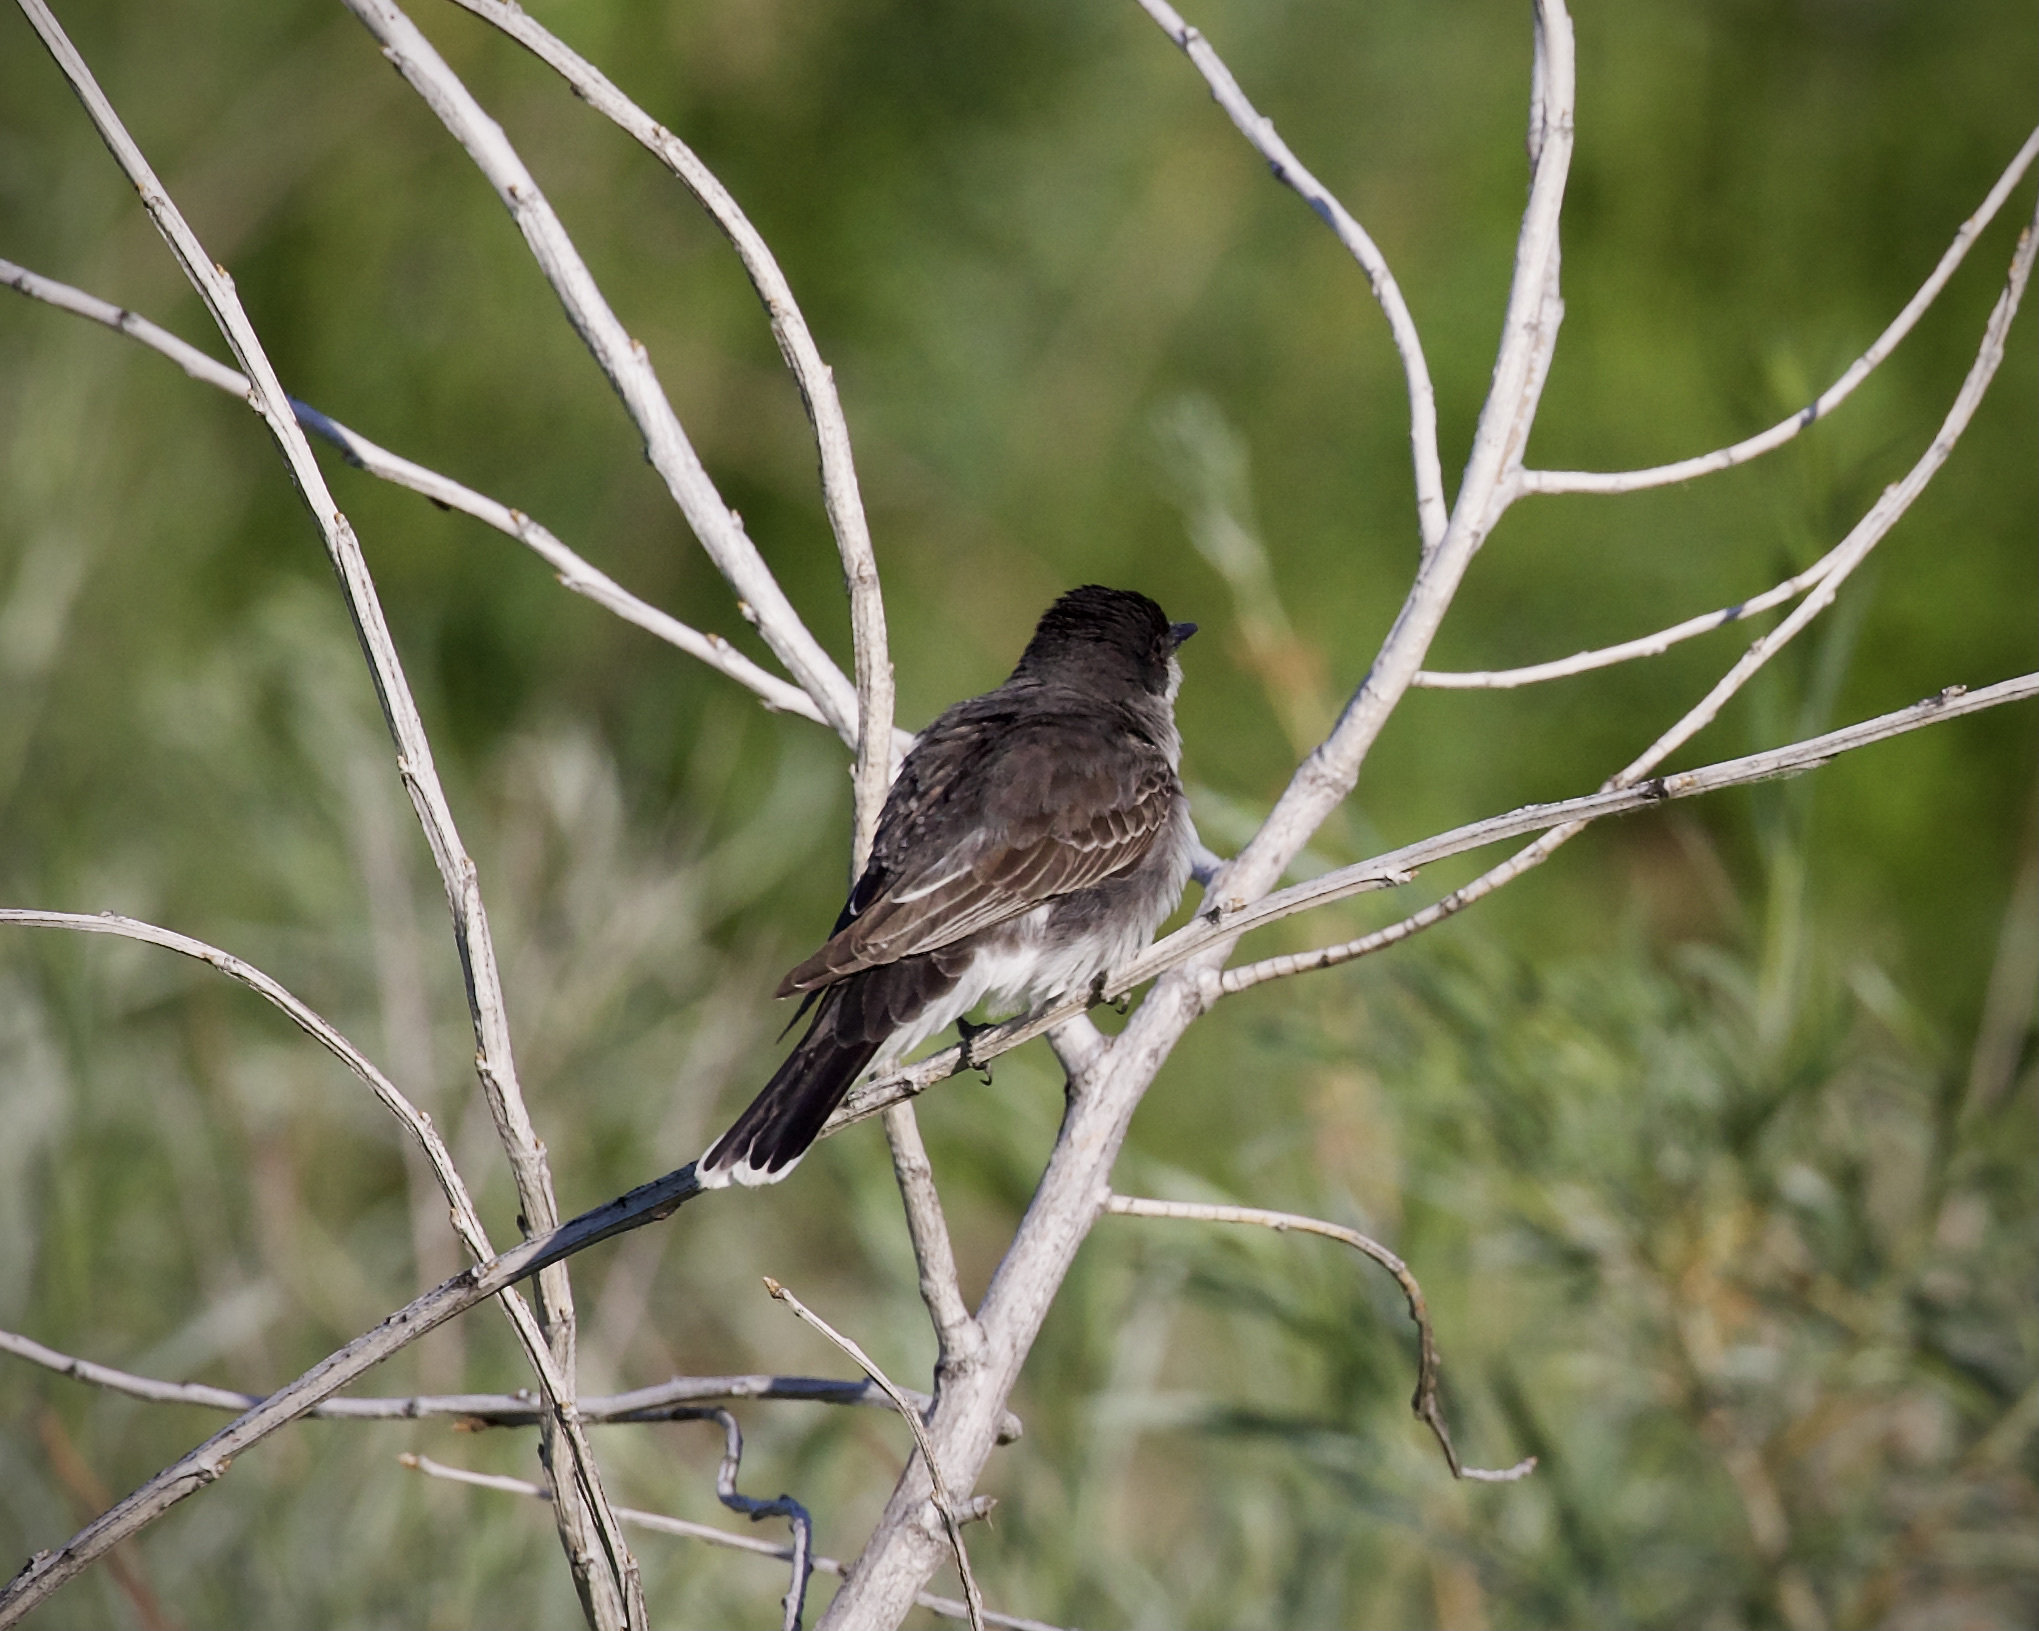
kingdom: Animalia
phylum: Chordata
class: Aves
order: Passeriformes
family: Tyrannidae
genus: Tyrannus
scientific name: Tyrannus tyrannus
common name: Eastern kingbird
